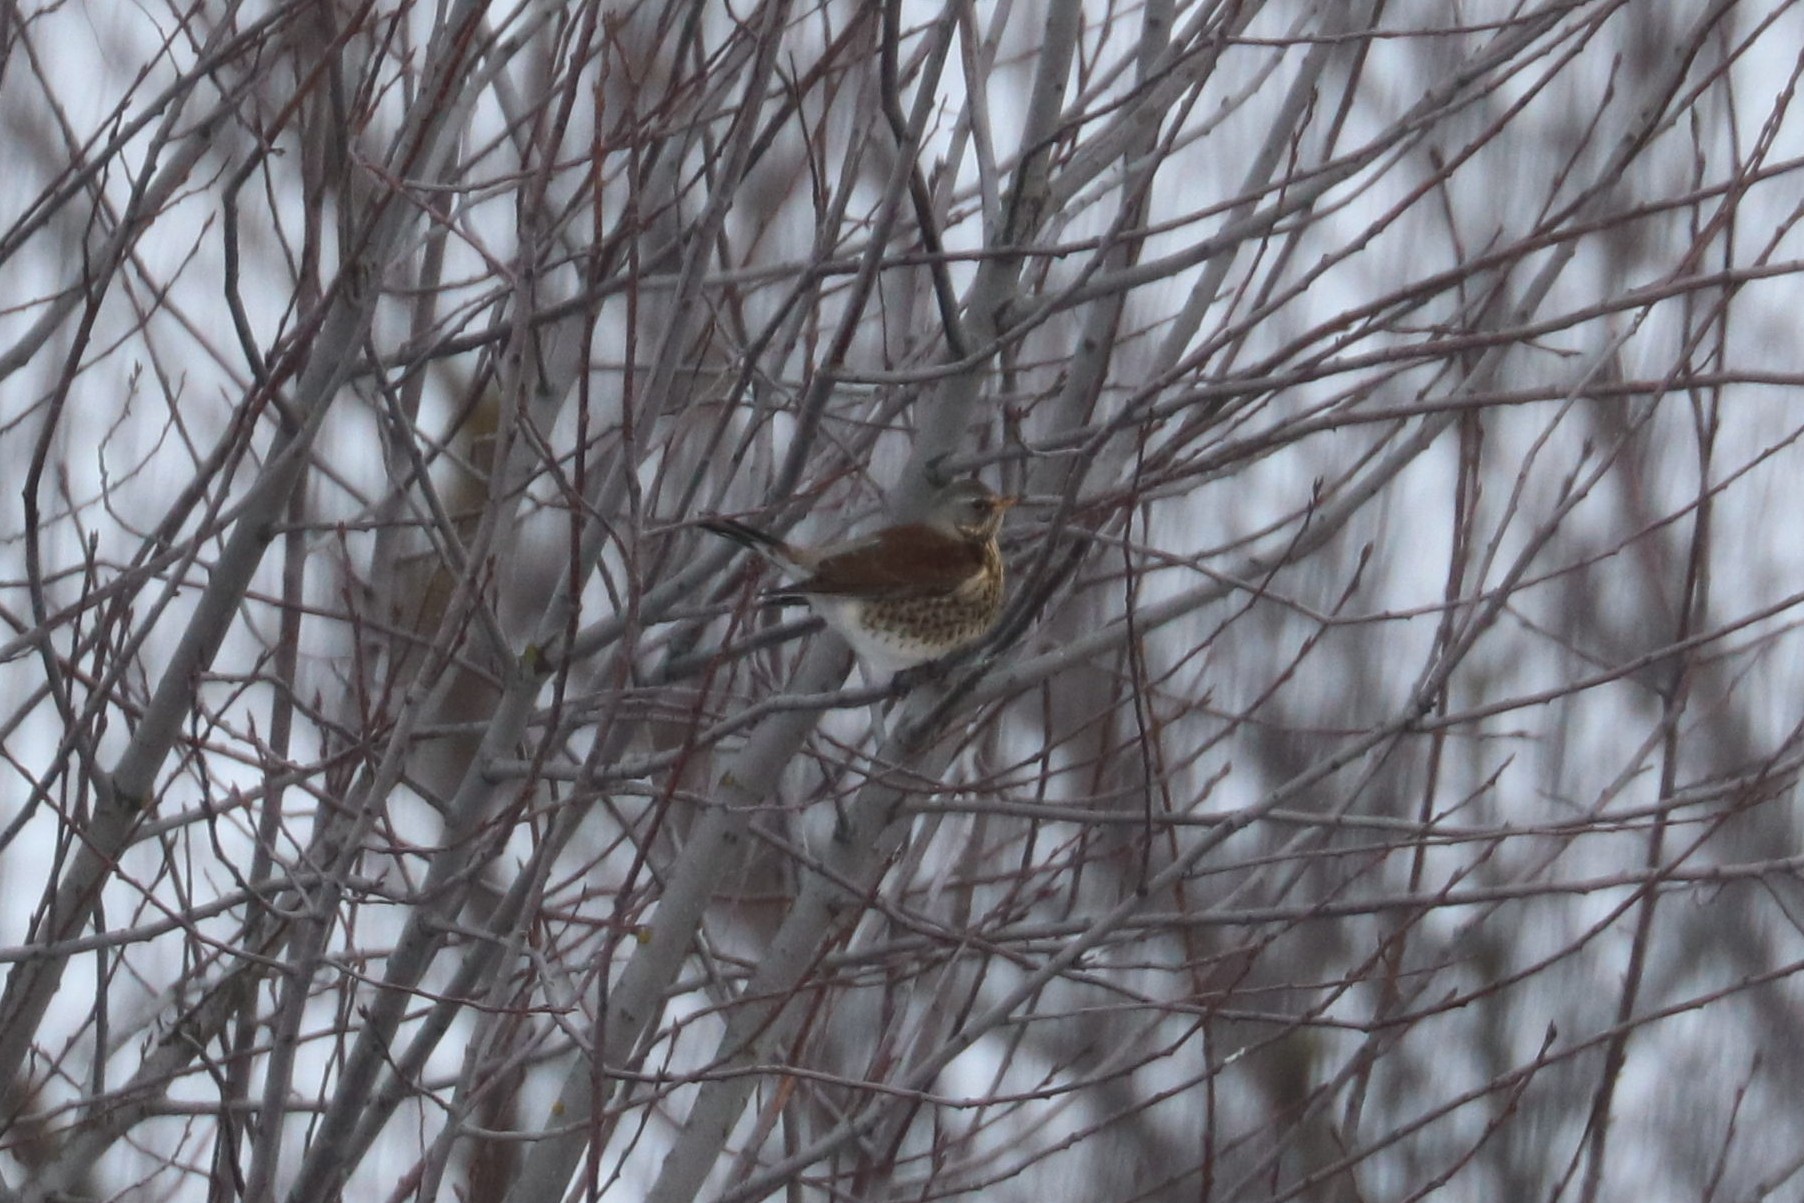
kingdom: Animalia
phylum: Chordata
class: Aves
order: Passeriformes
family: Turdidae
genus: Turdus
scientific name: Turdus pilaris
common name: Fieldfare
